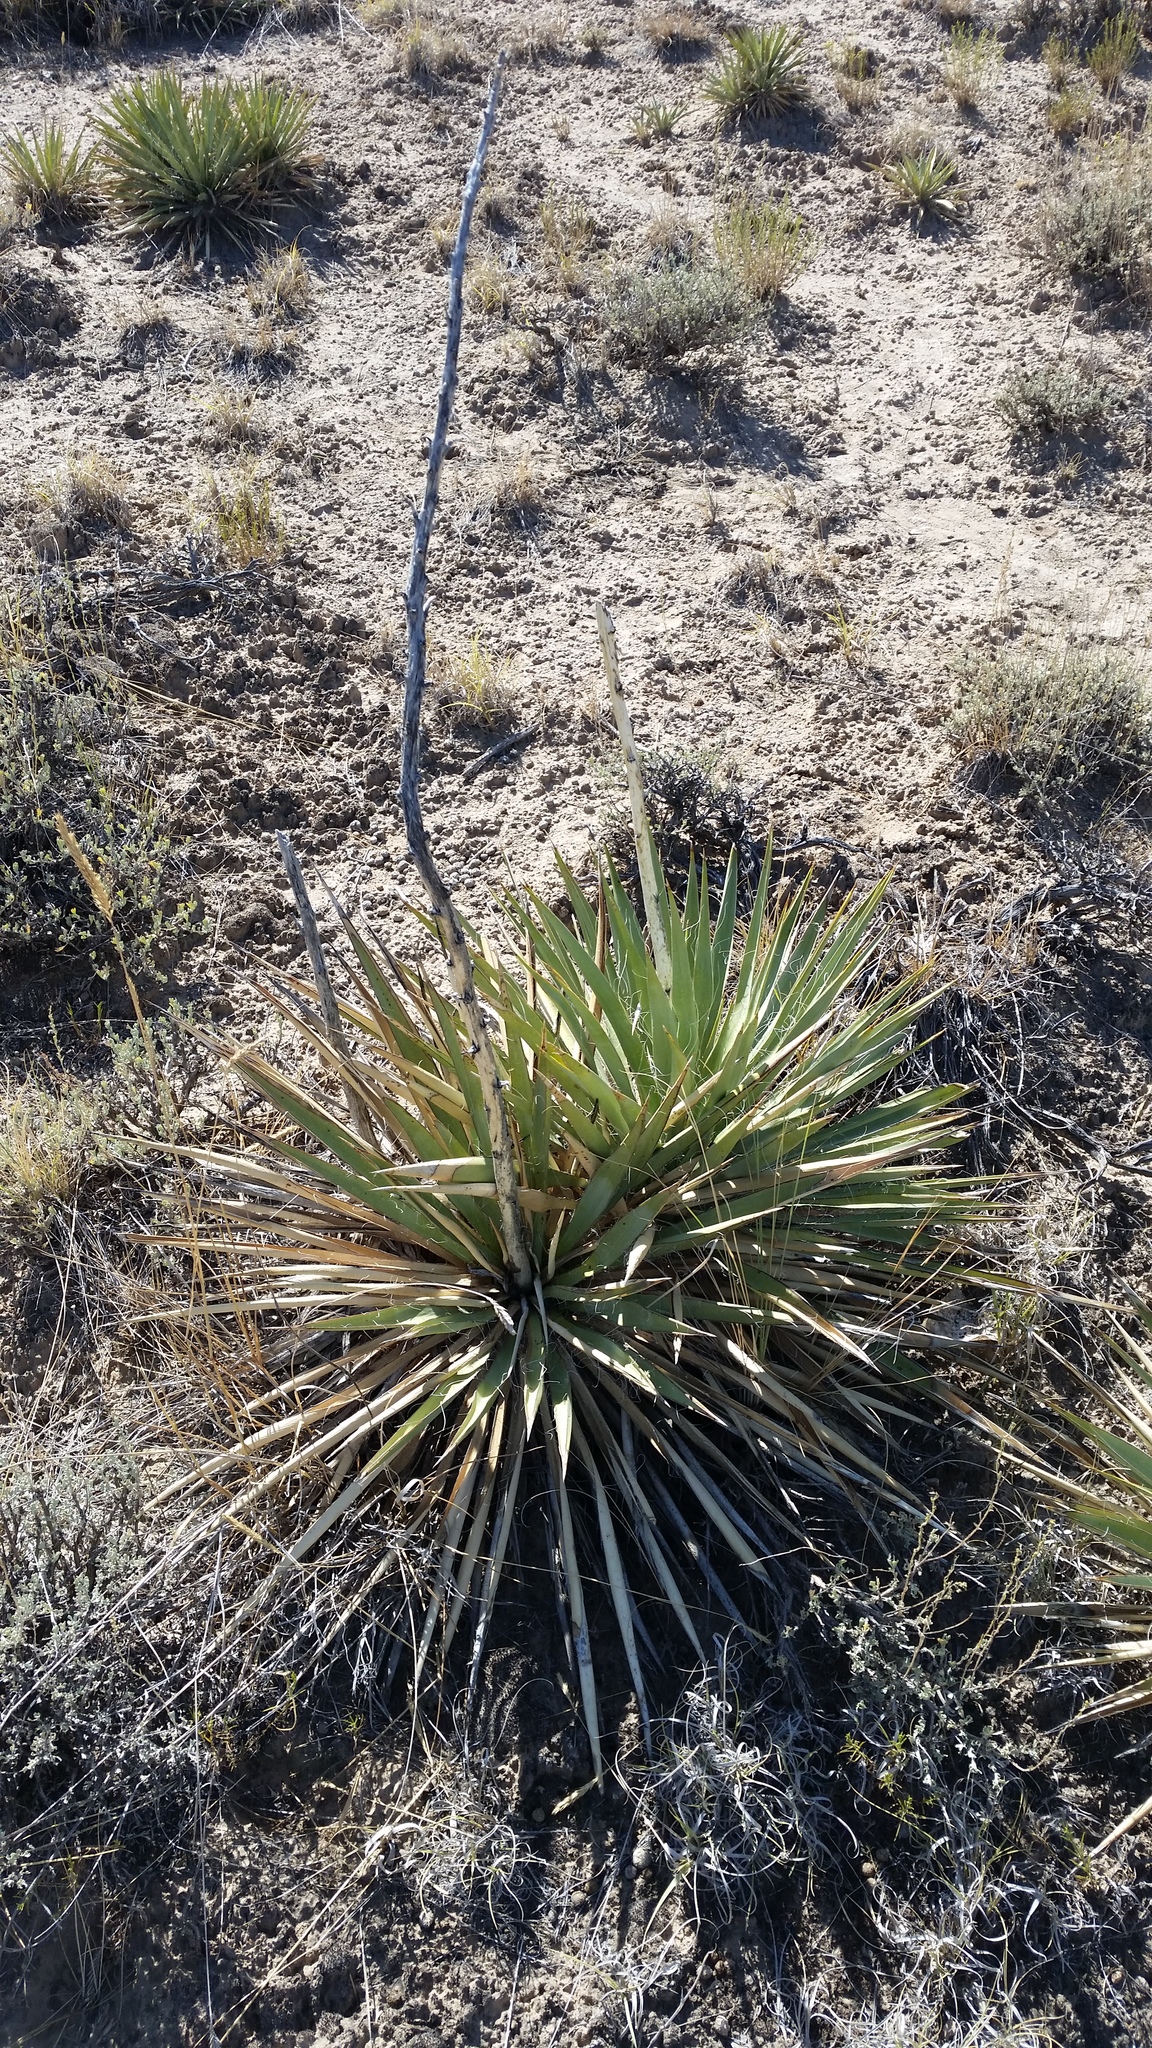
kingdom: Plantae
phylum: Tracheophyta
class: Liliopsida
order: Asparagales
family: Asparagaceae
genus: Yucca
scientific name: Yucca harrimaniae
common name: Harriman's yucca
